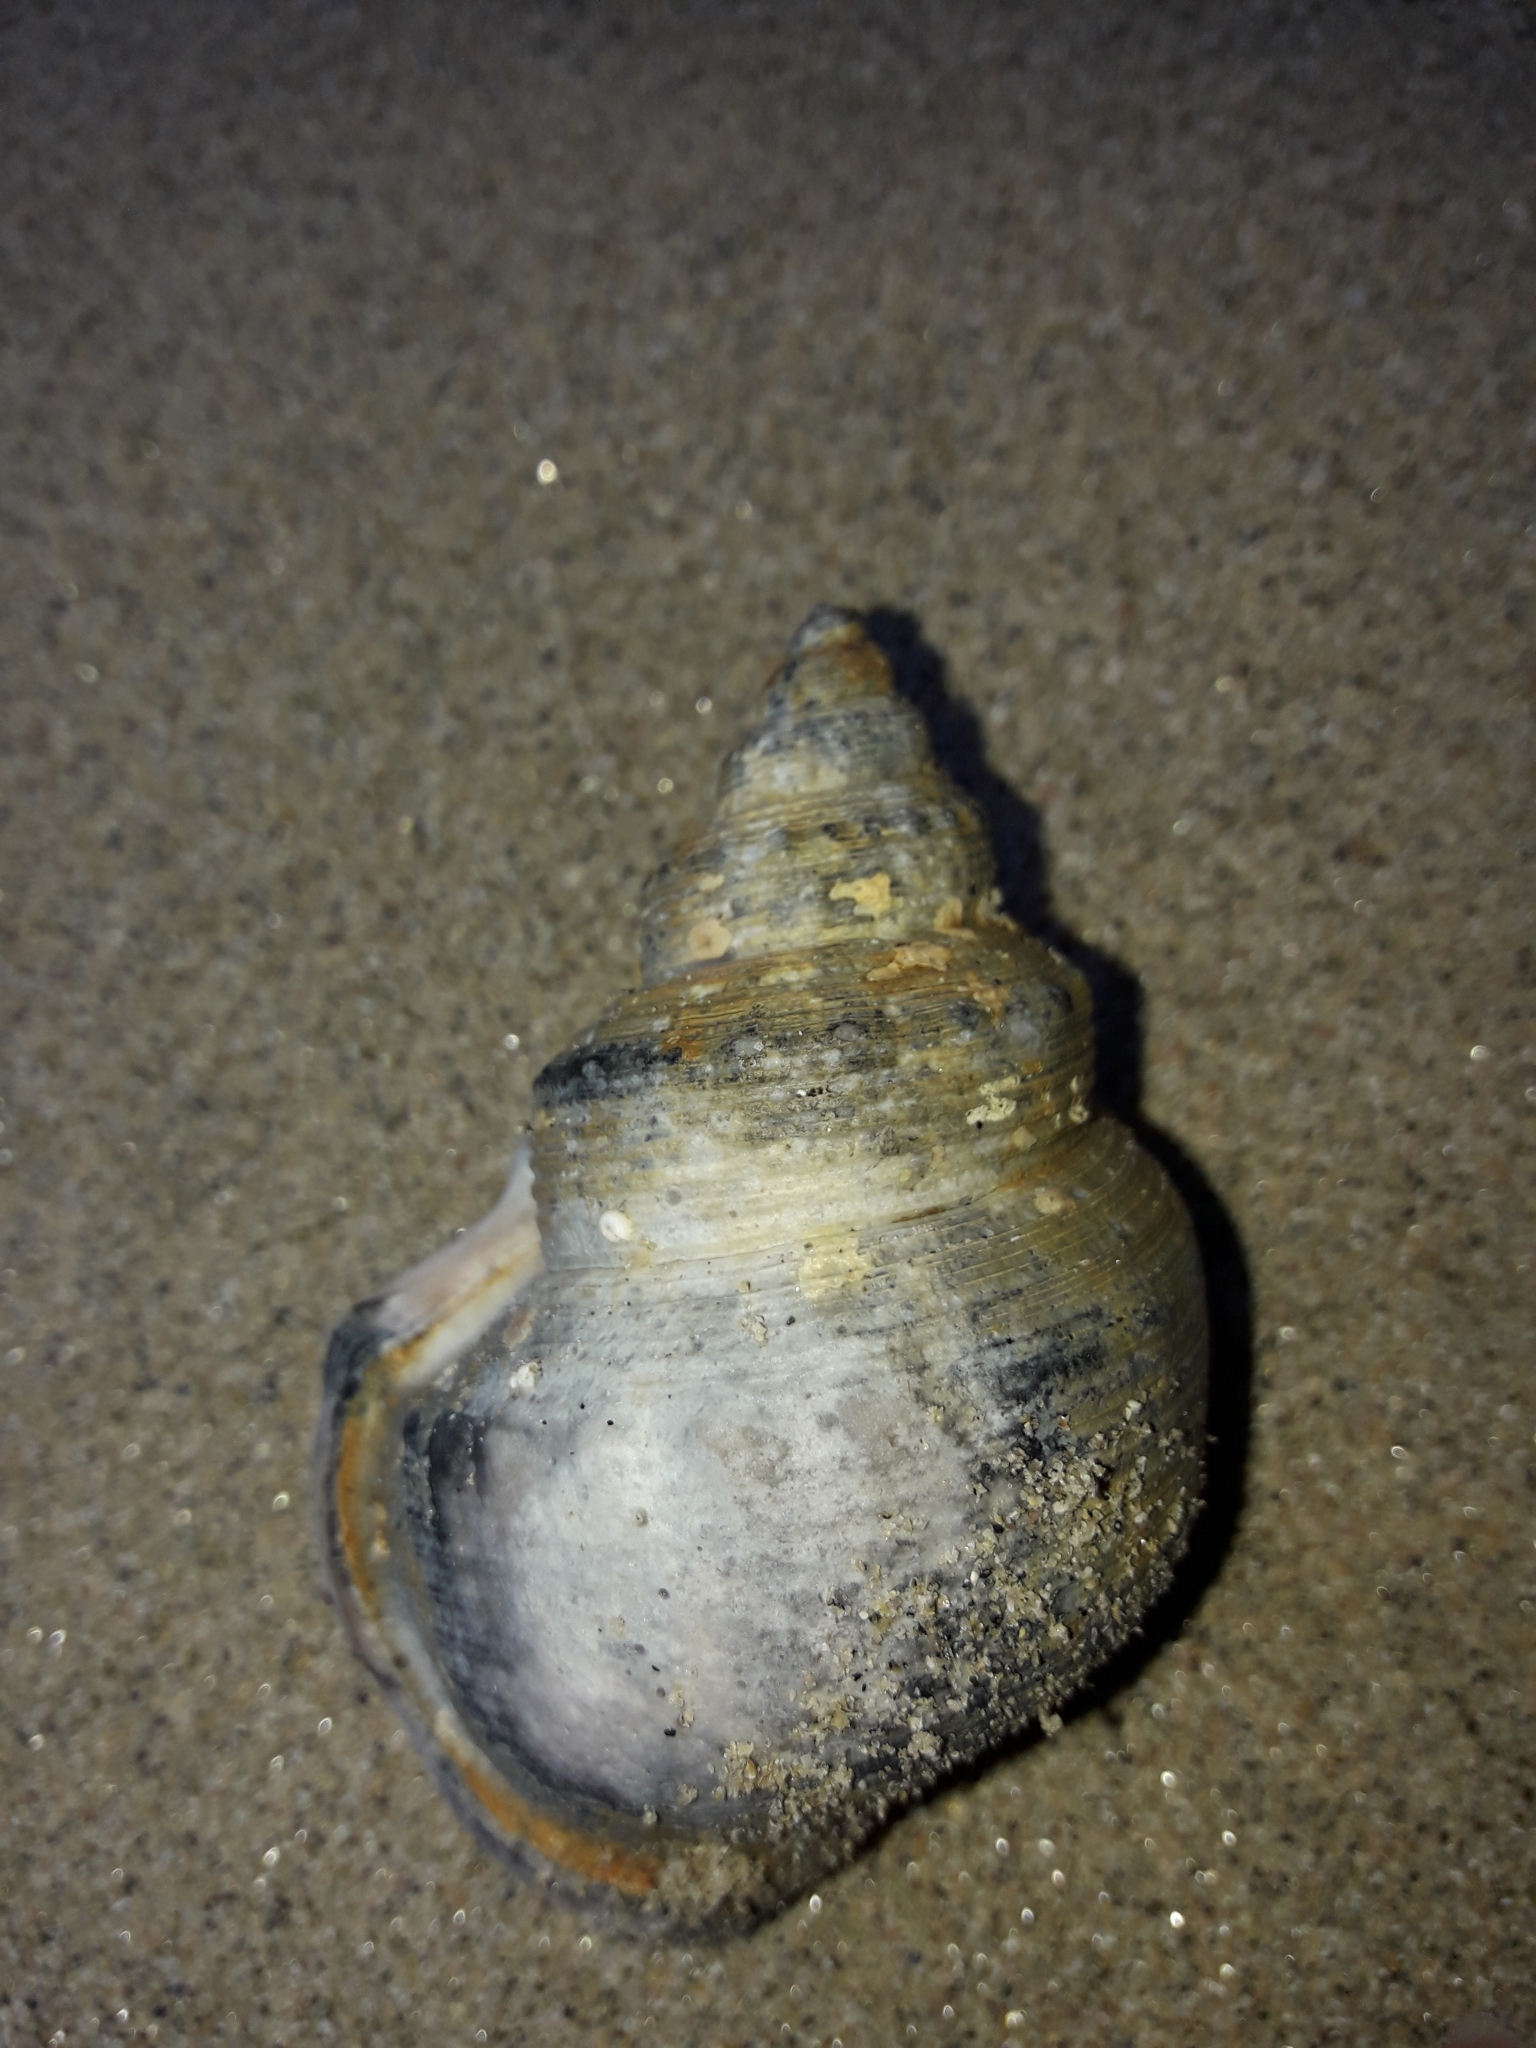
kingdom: Animalia
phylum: Mollusca
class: Gastropoda
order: Littorinimorpha
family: Struthiolariidae
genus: Struthiolaria
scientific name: Struthiolaria papulosa
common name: Large ostrich foot
